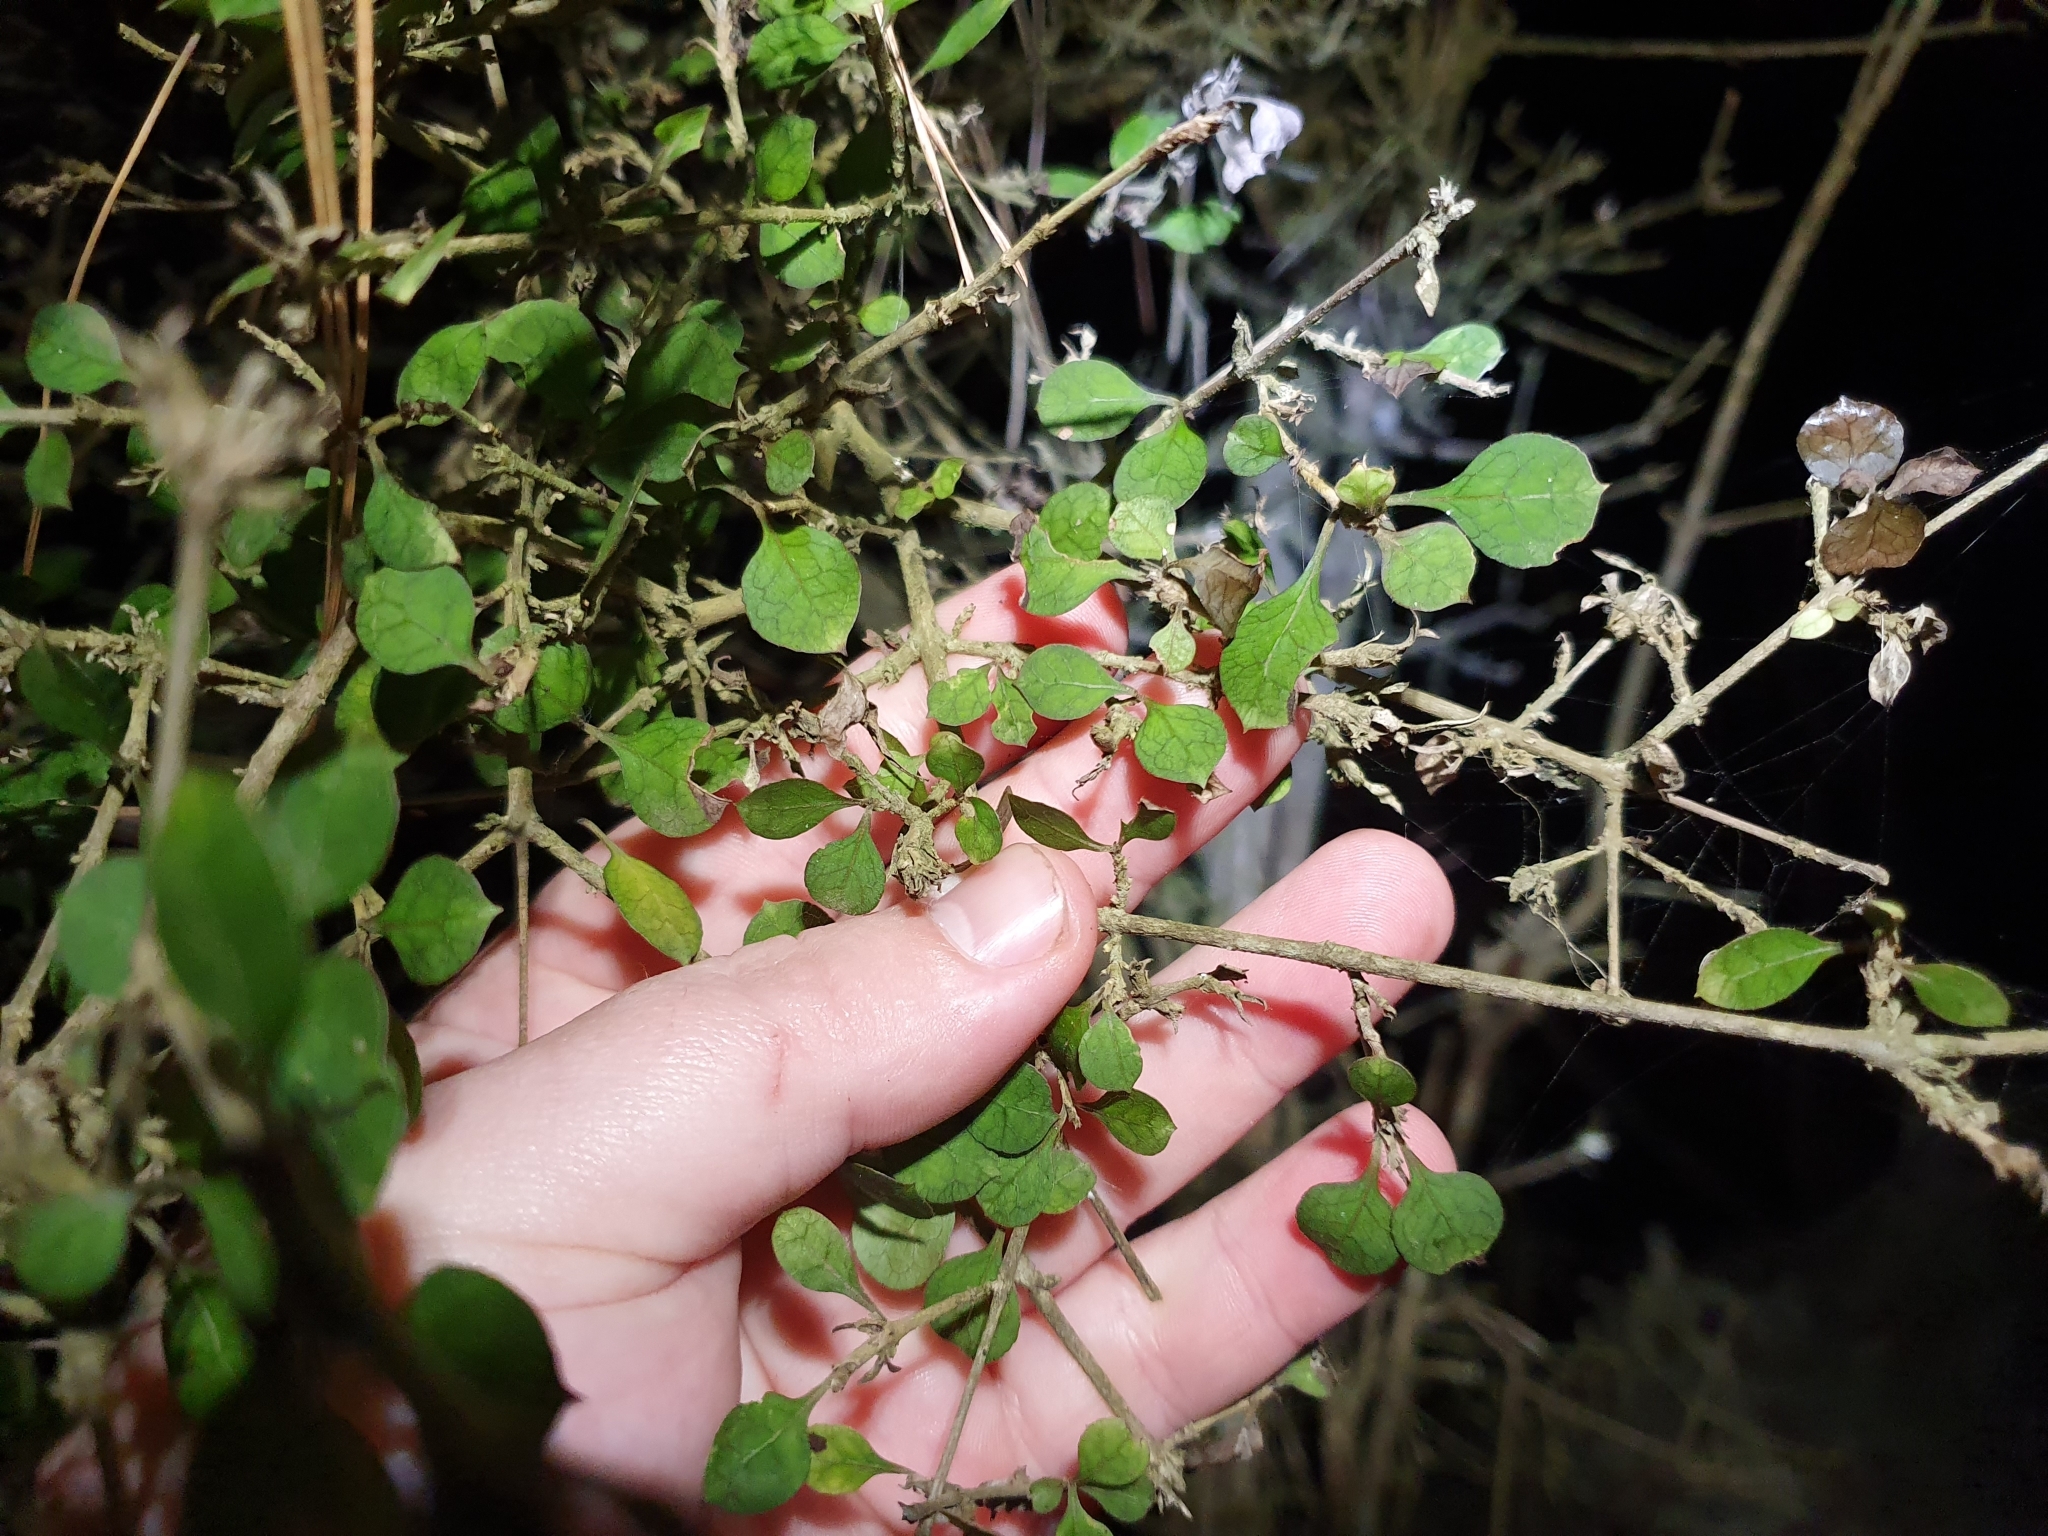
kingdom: Plantae
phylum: Tracheophyta
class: Magnoliopsida
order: Gentianales
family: Rubiaceae
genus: Coprosma
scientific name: Coprosma areolata
